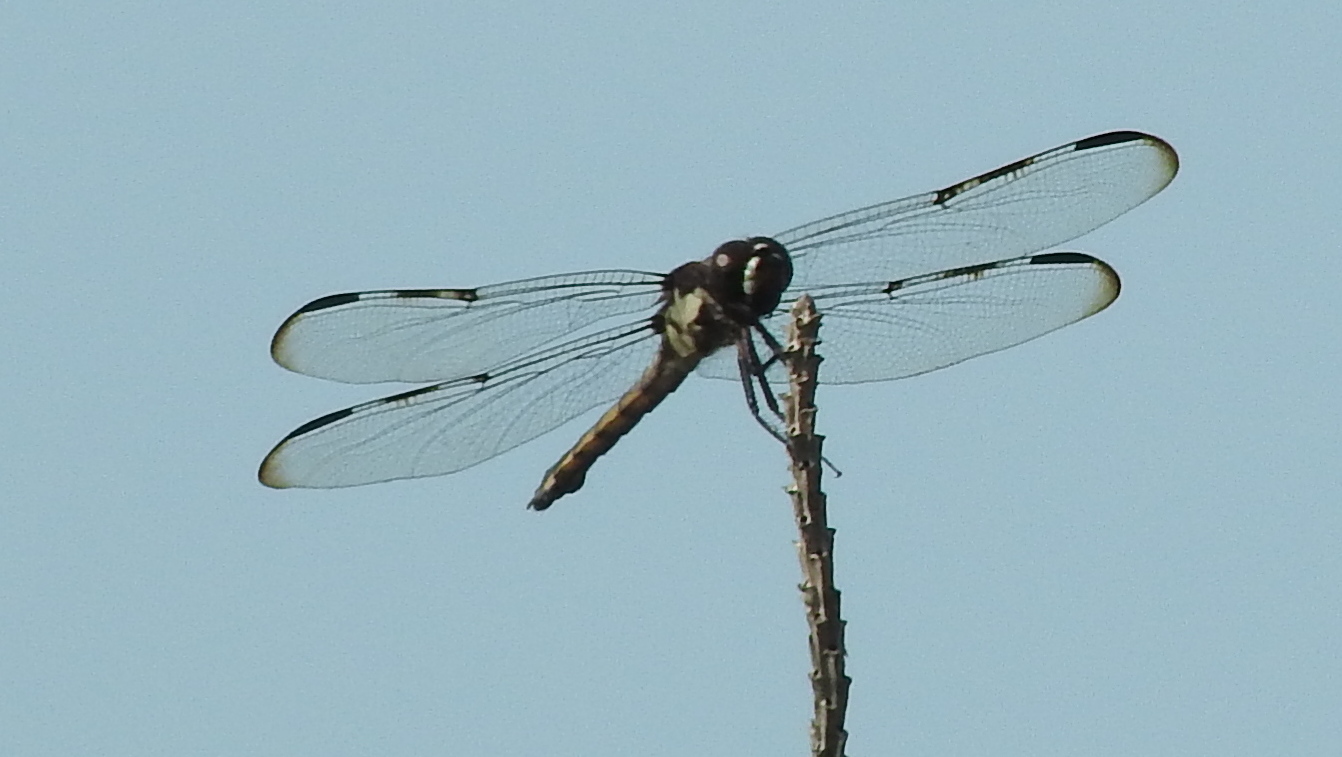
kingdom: Animalia
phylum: Arthropoda
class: Insecta
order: Odonata
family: Libellulidae
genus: Libellula
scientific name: Libellula axilena
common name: Bar-winged skimmer
